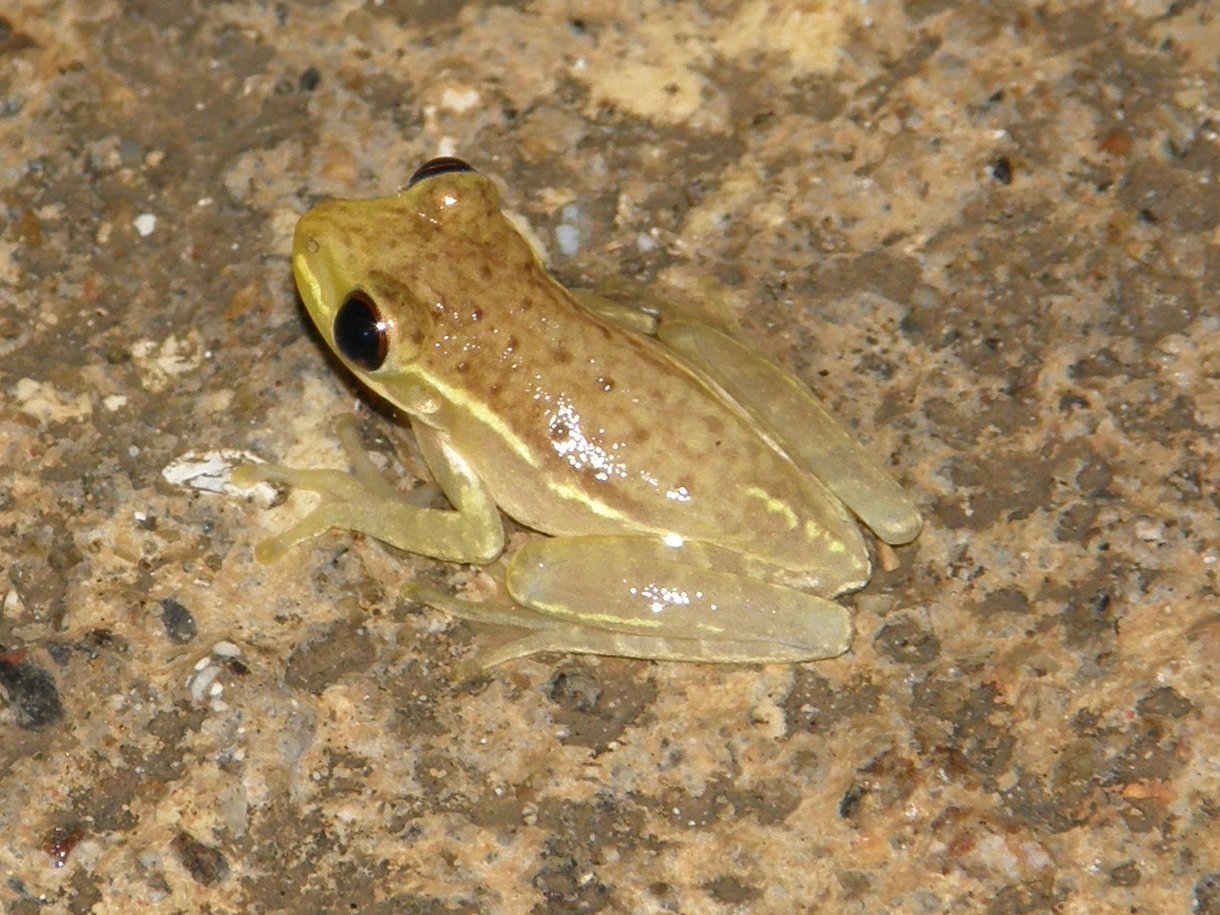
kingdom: Animalia
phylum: Chordata
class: Amphibia
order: Anura
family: Hylidae
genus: Osteopilus
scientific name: Osteopilus septentrionalis
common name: Cuban treefrog
